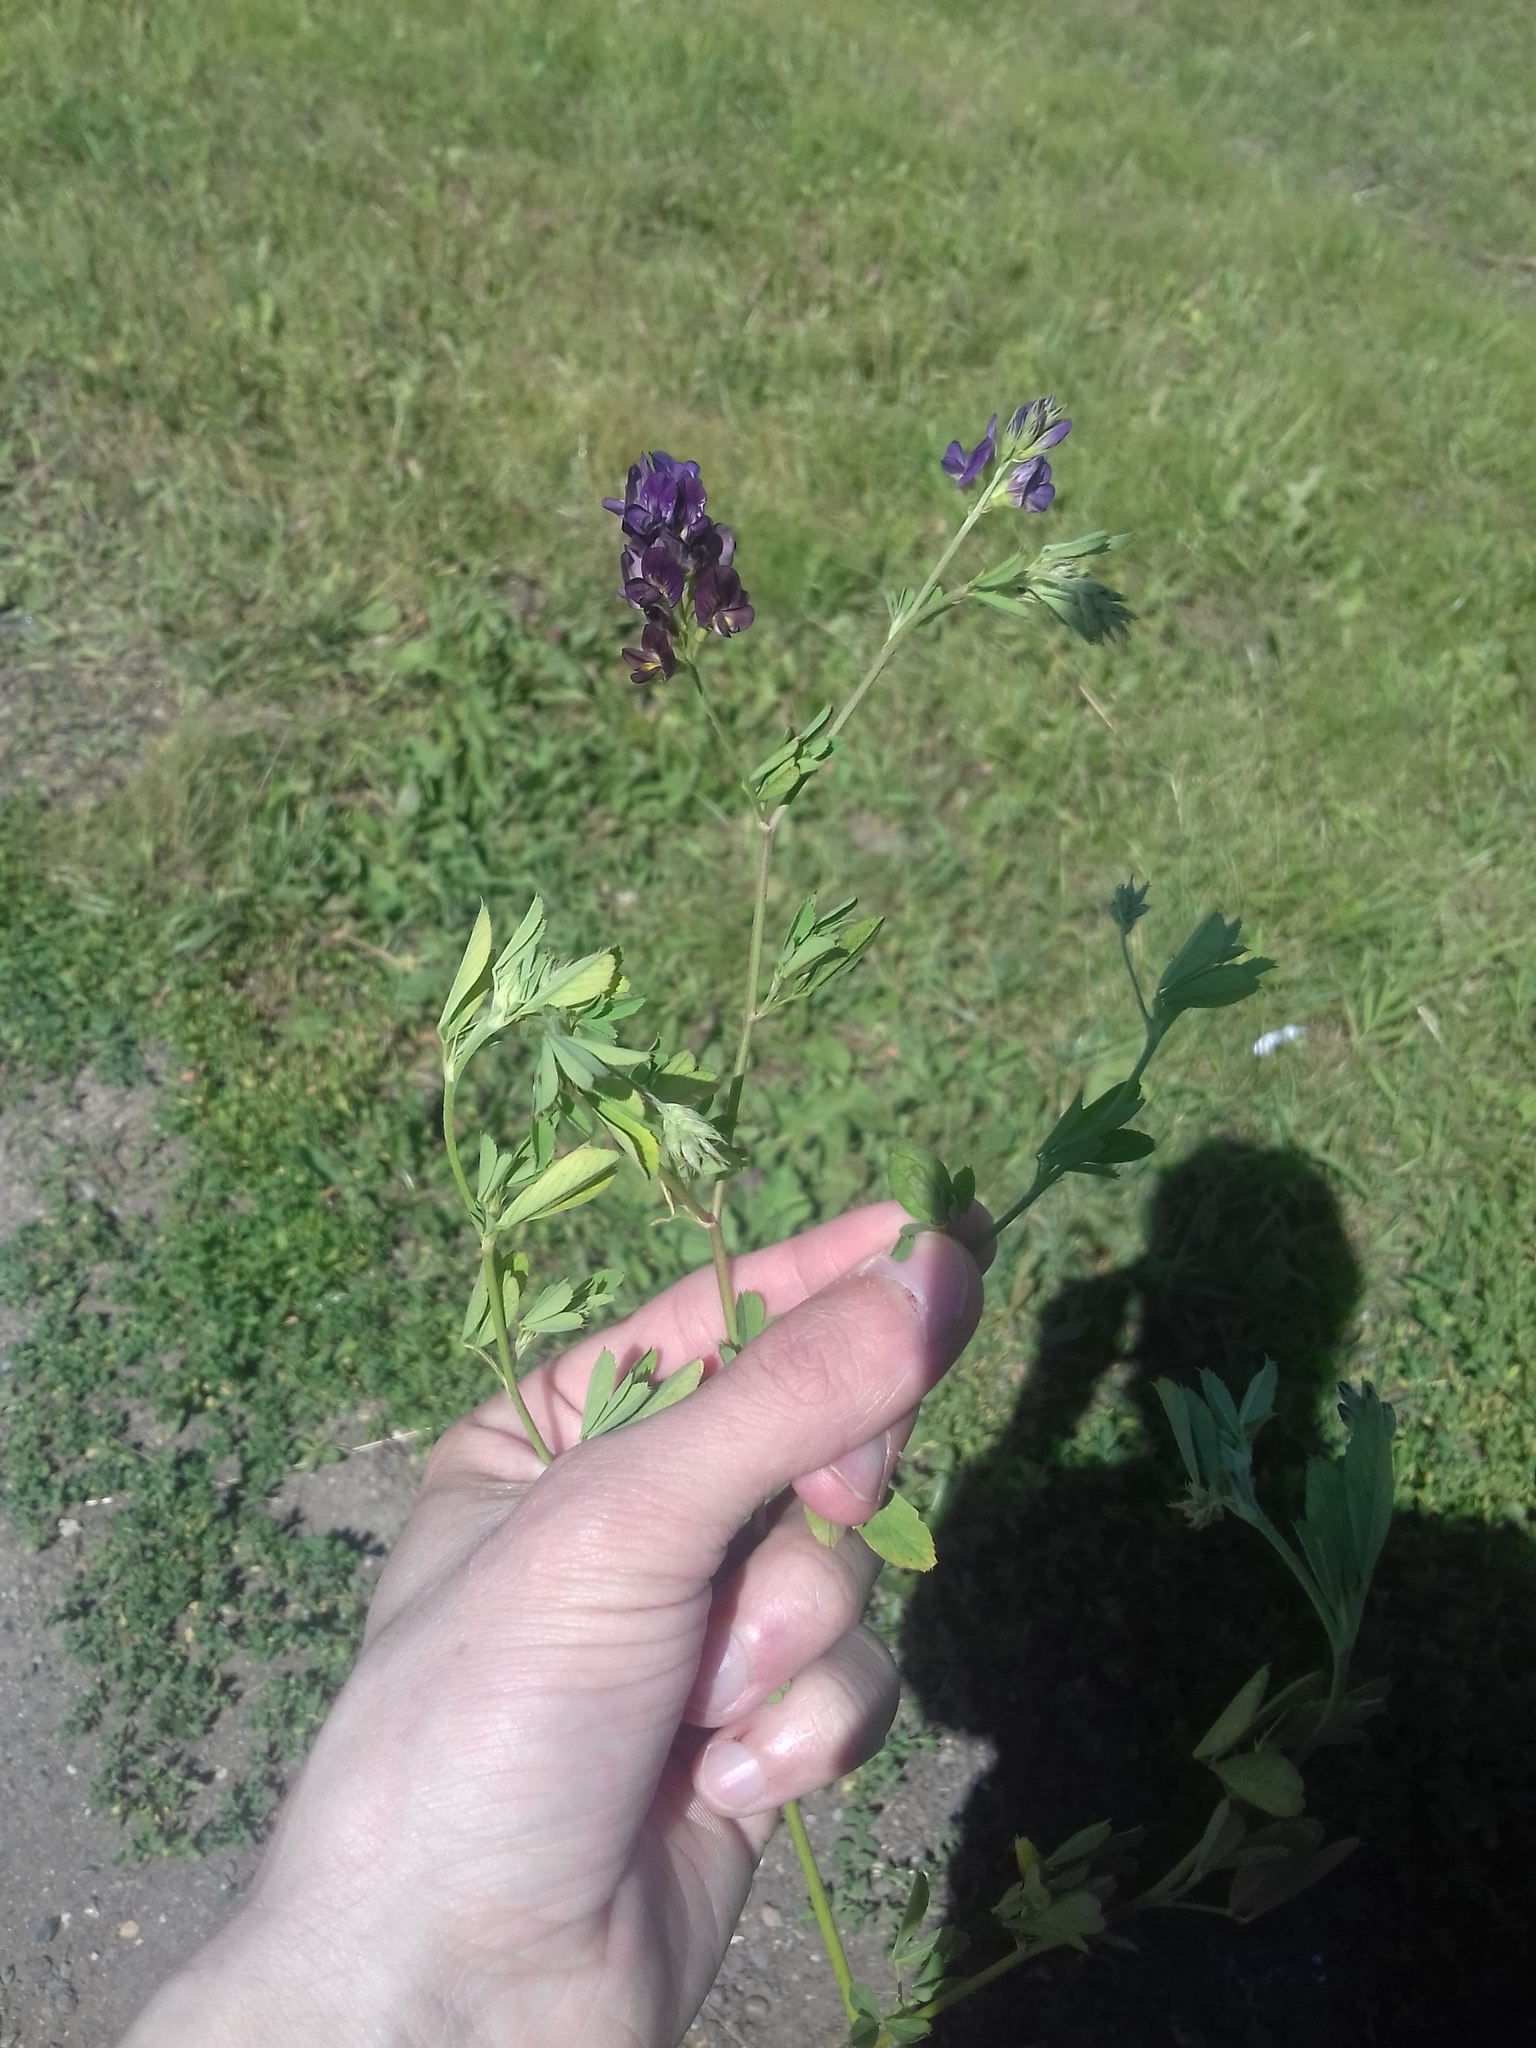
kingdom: Plantae
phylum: Tracheophyta
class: Magnoliopsida
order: Fabales
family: Fabaceae
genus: Medicago
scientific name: Medicago sativa
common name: Alfalfa
